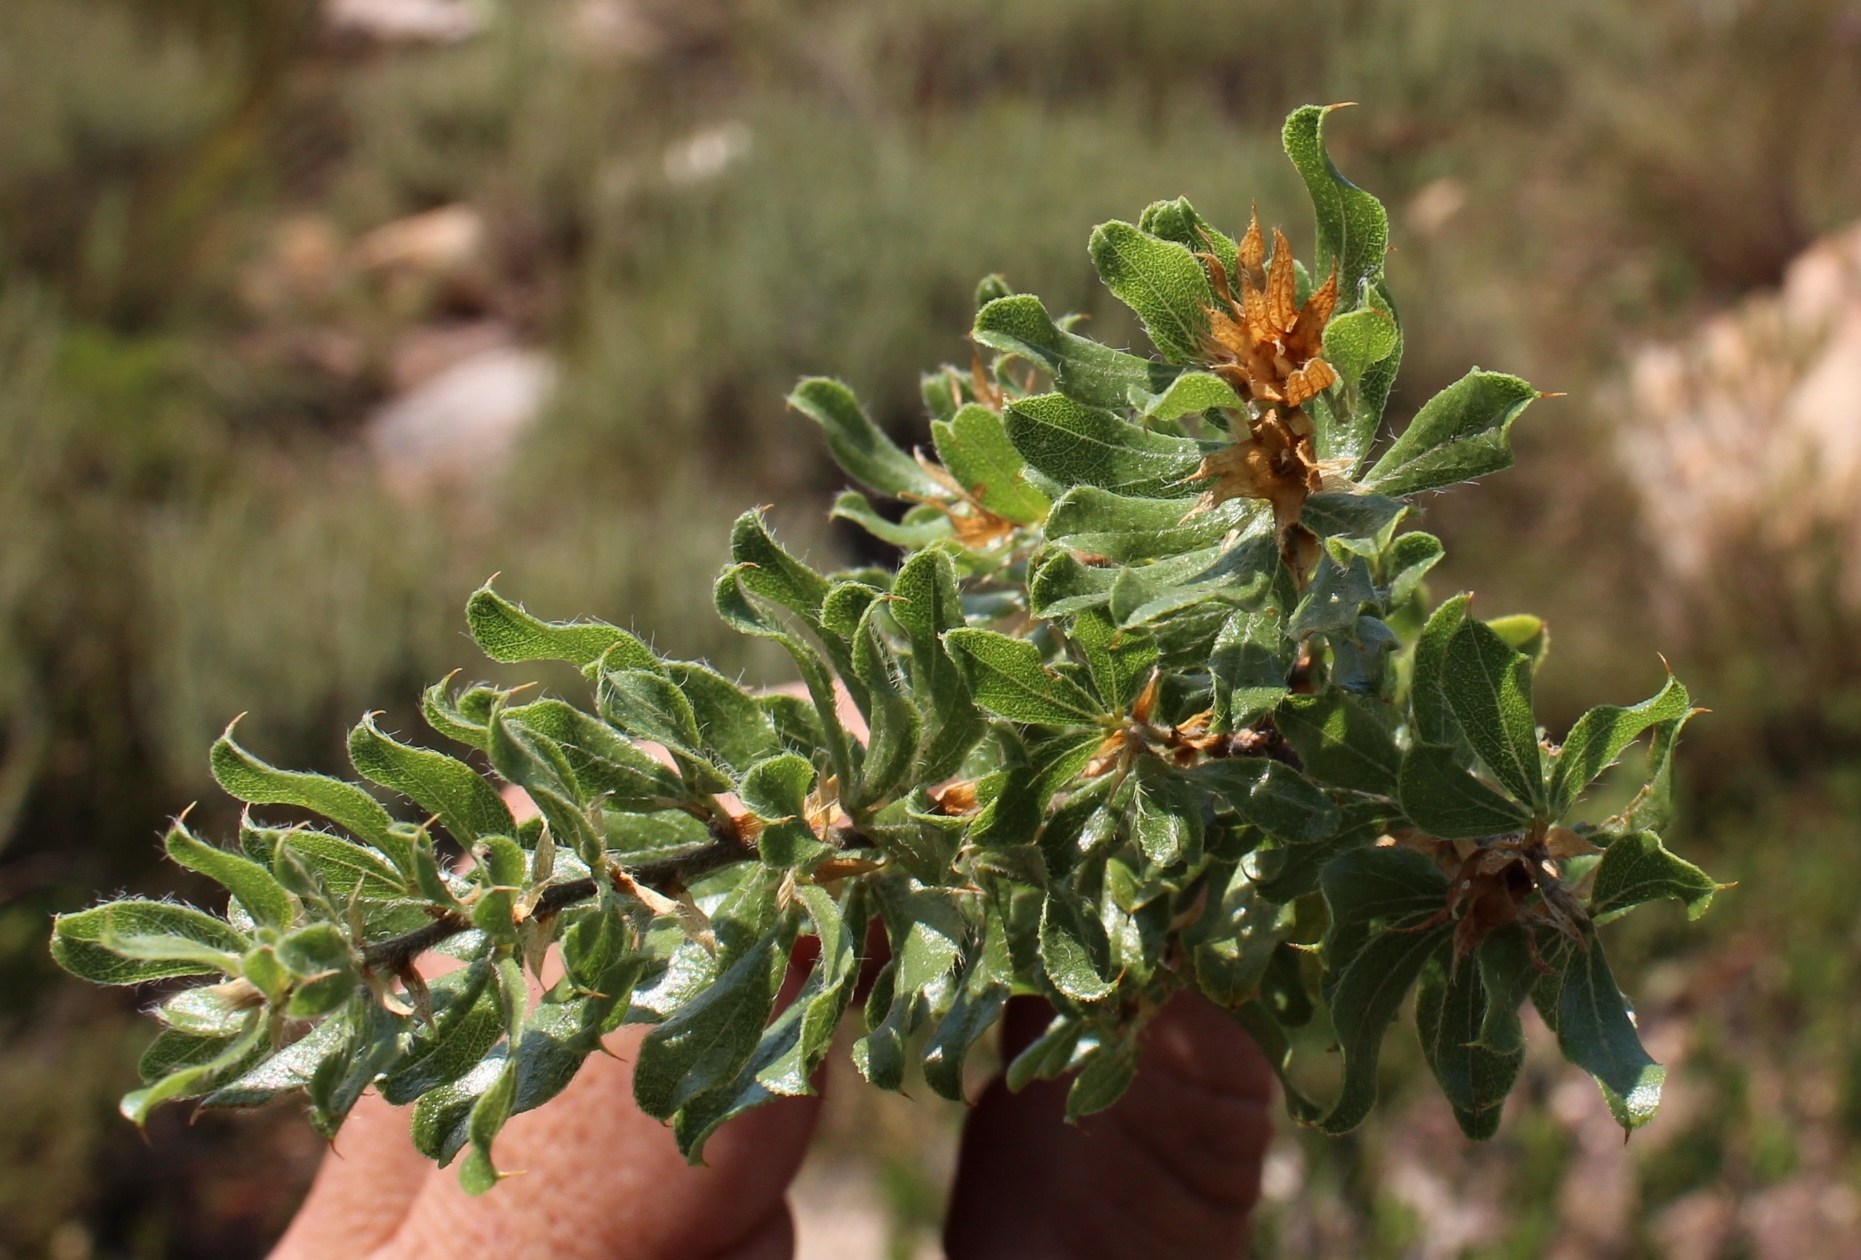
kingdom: Plantae
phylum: Tracheophyta
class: Magnoliopsida
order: Fabales
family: Fabaceae
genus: Psoralea
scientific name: Psoralea obliqua
